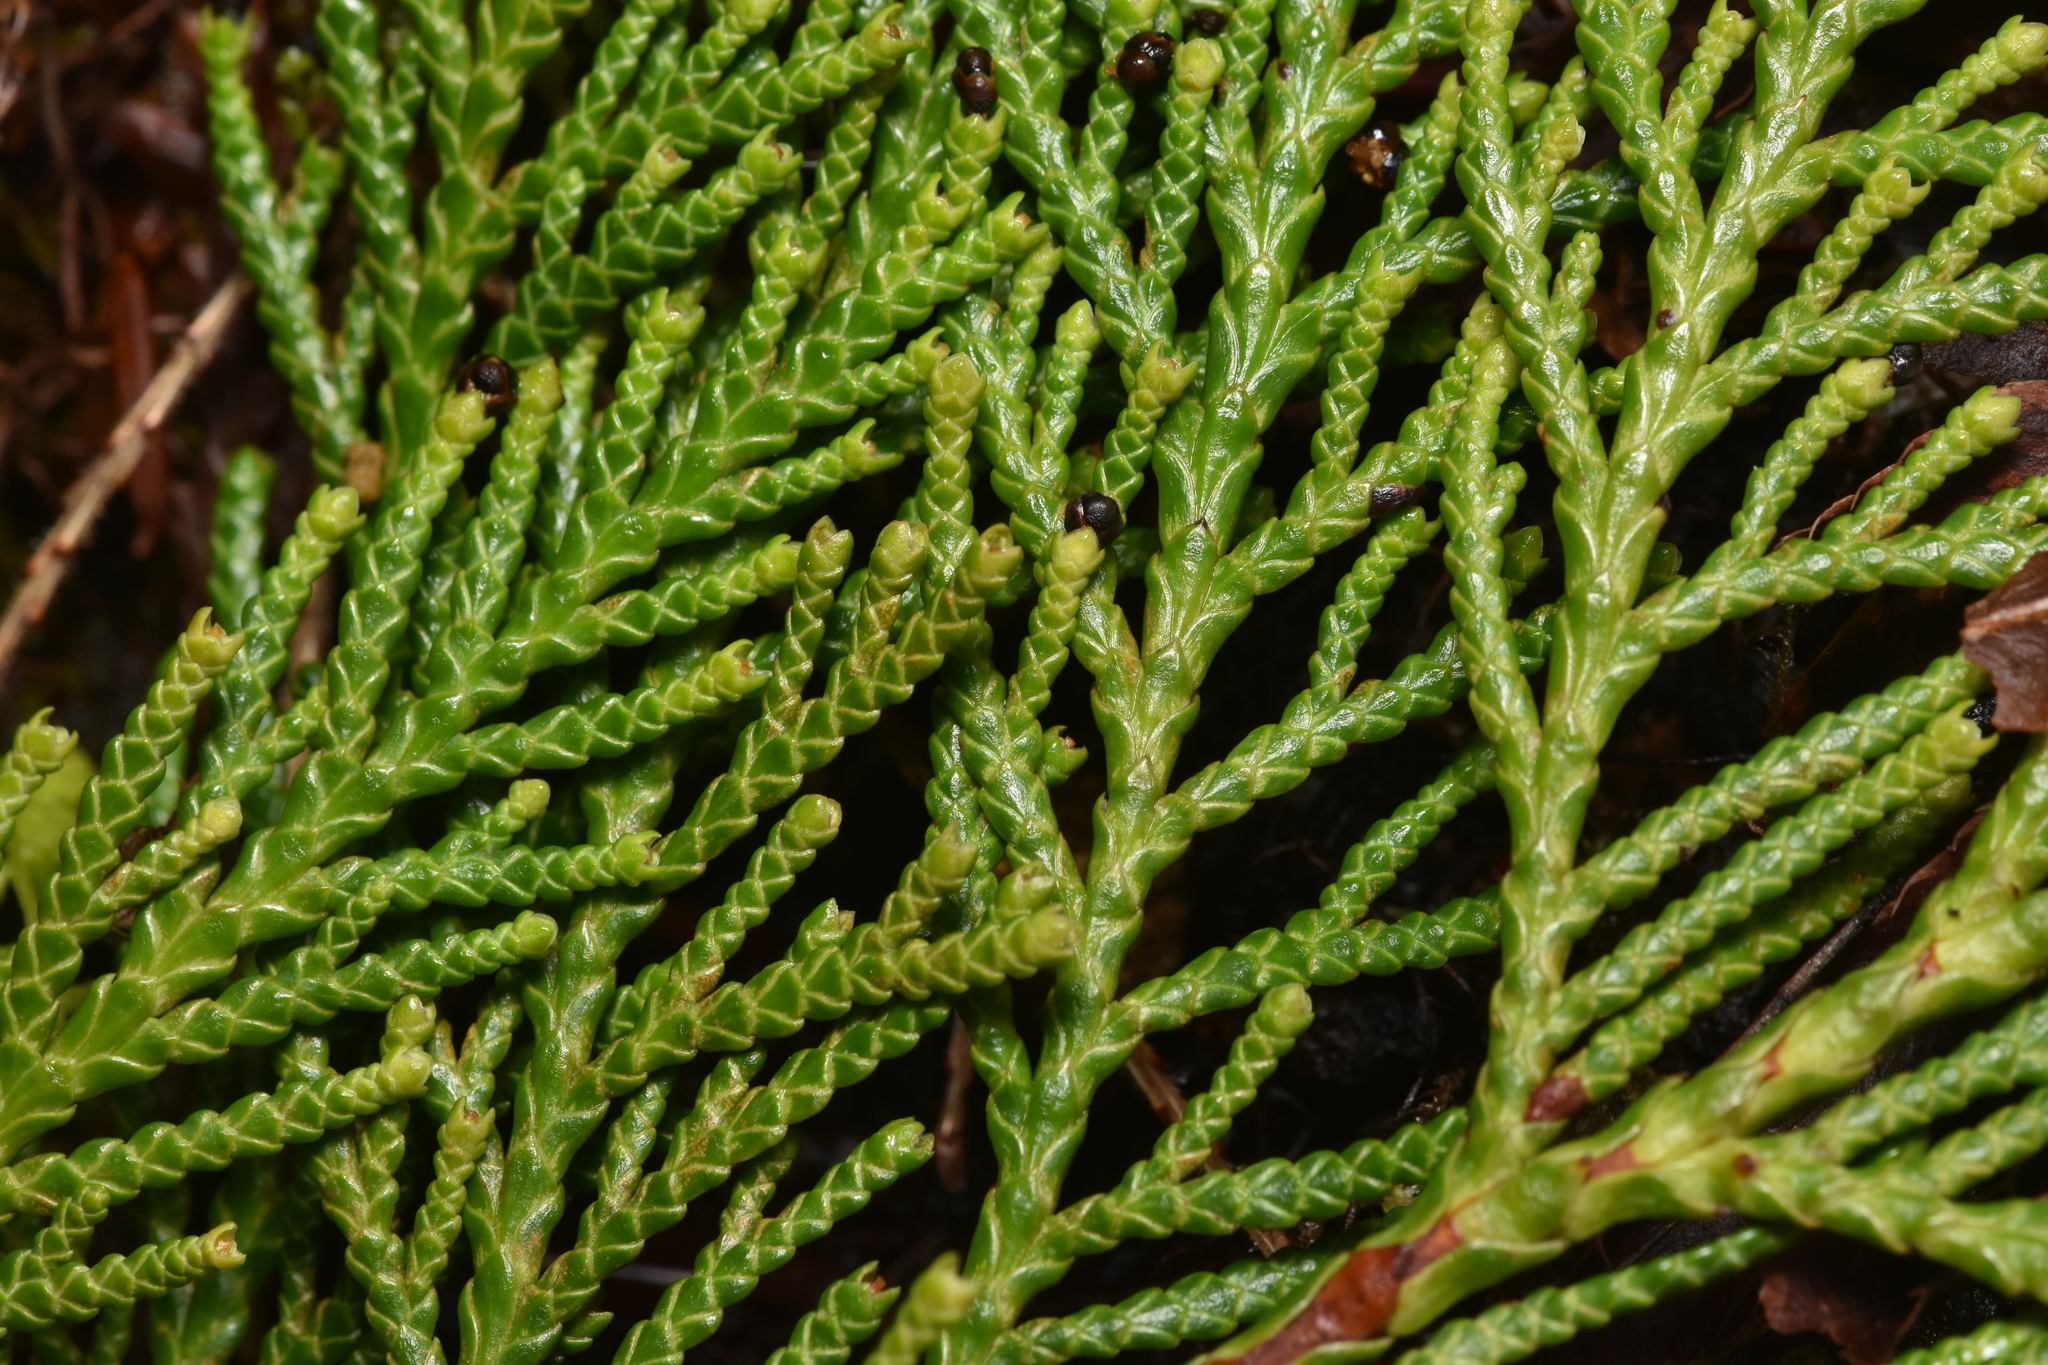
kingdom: Plantae
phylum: Tracheophyta
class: Pinopsida
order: Pinales
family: Cupressaceae
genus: Thuja
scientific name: Thuja plicata
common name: Western red-cedar
